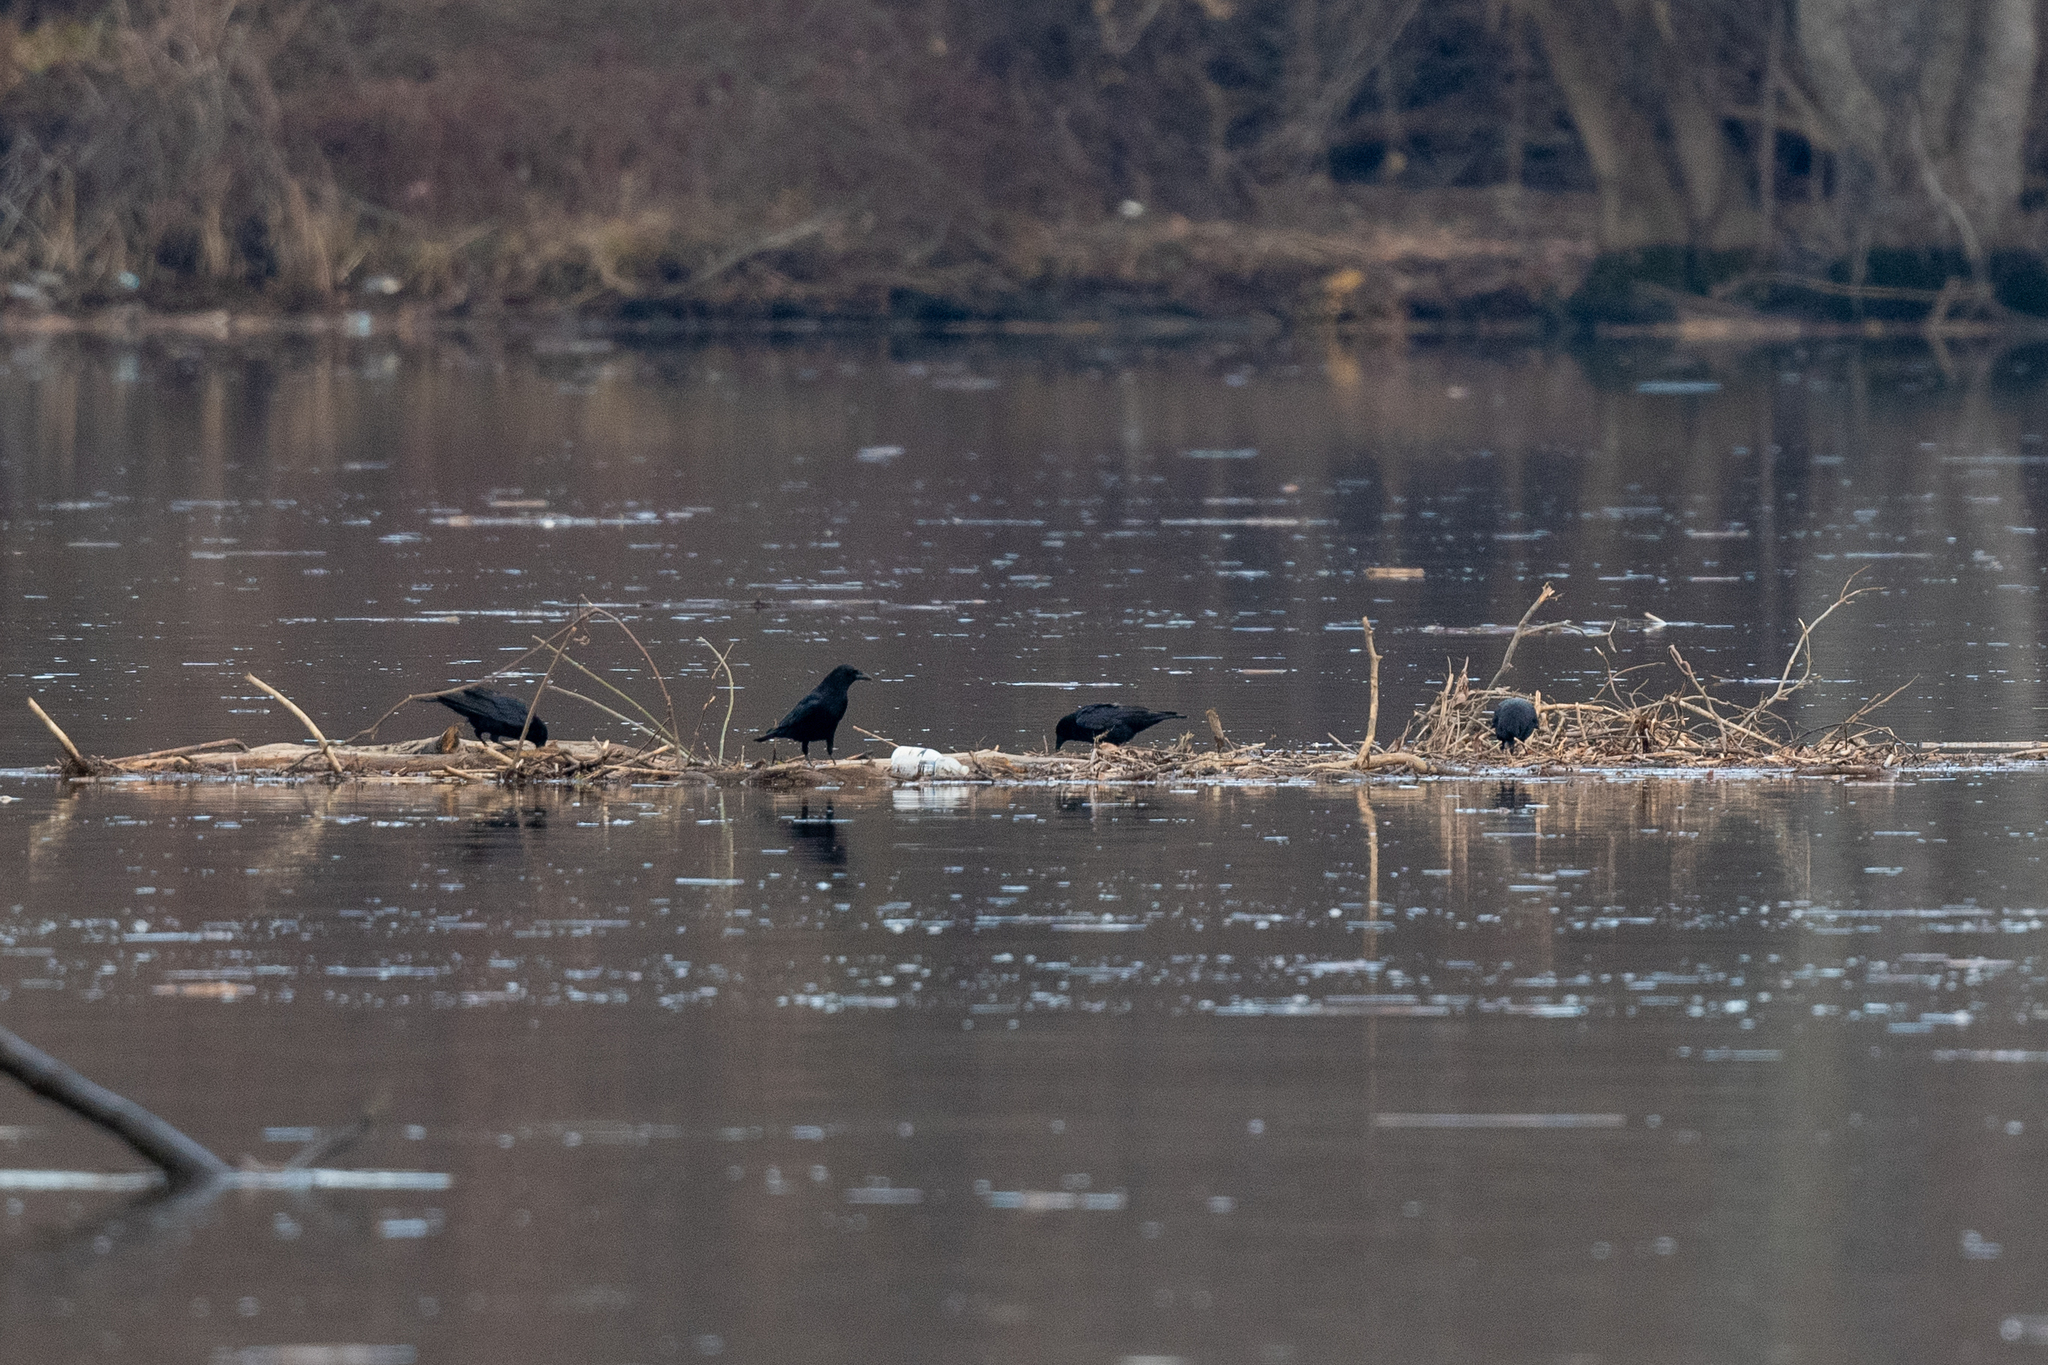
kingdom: Animalia
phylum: Chordata
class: Aves
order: Passeriformes
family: Corvidae
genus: Corvus
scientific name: Corvus brachyrhynchos
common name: American crow
